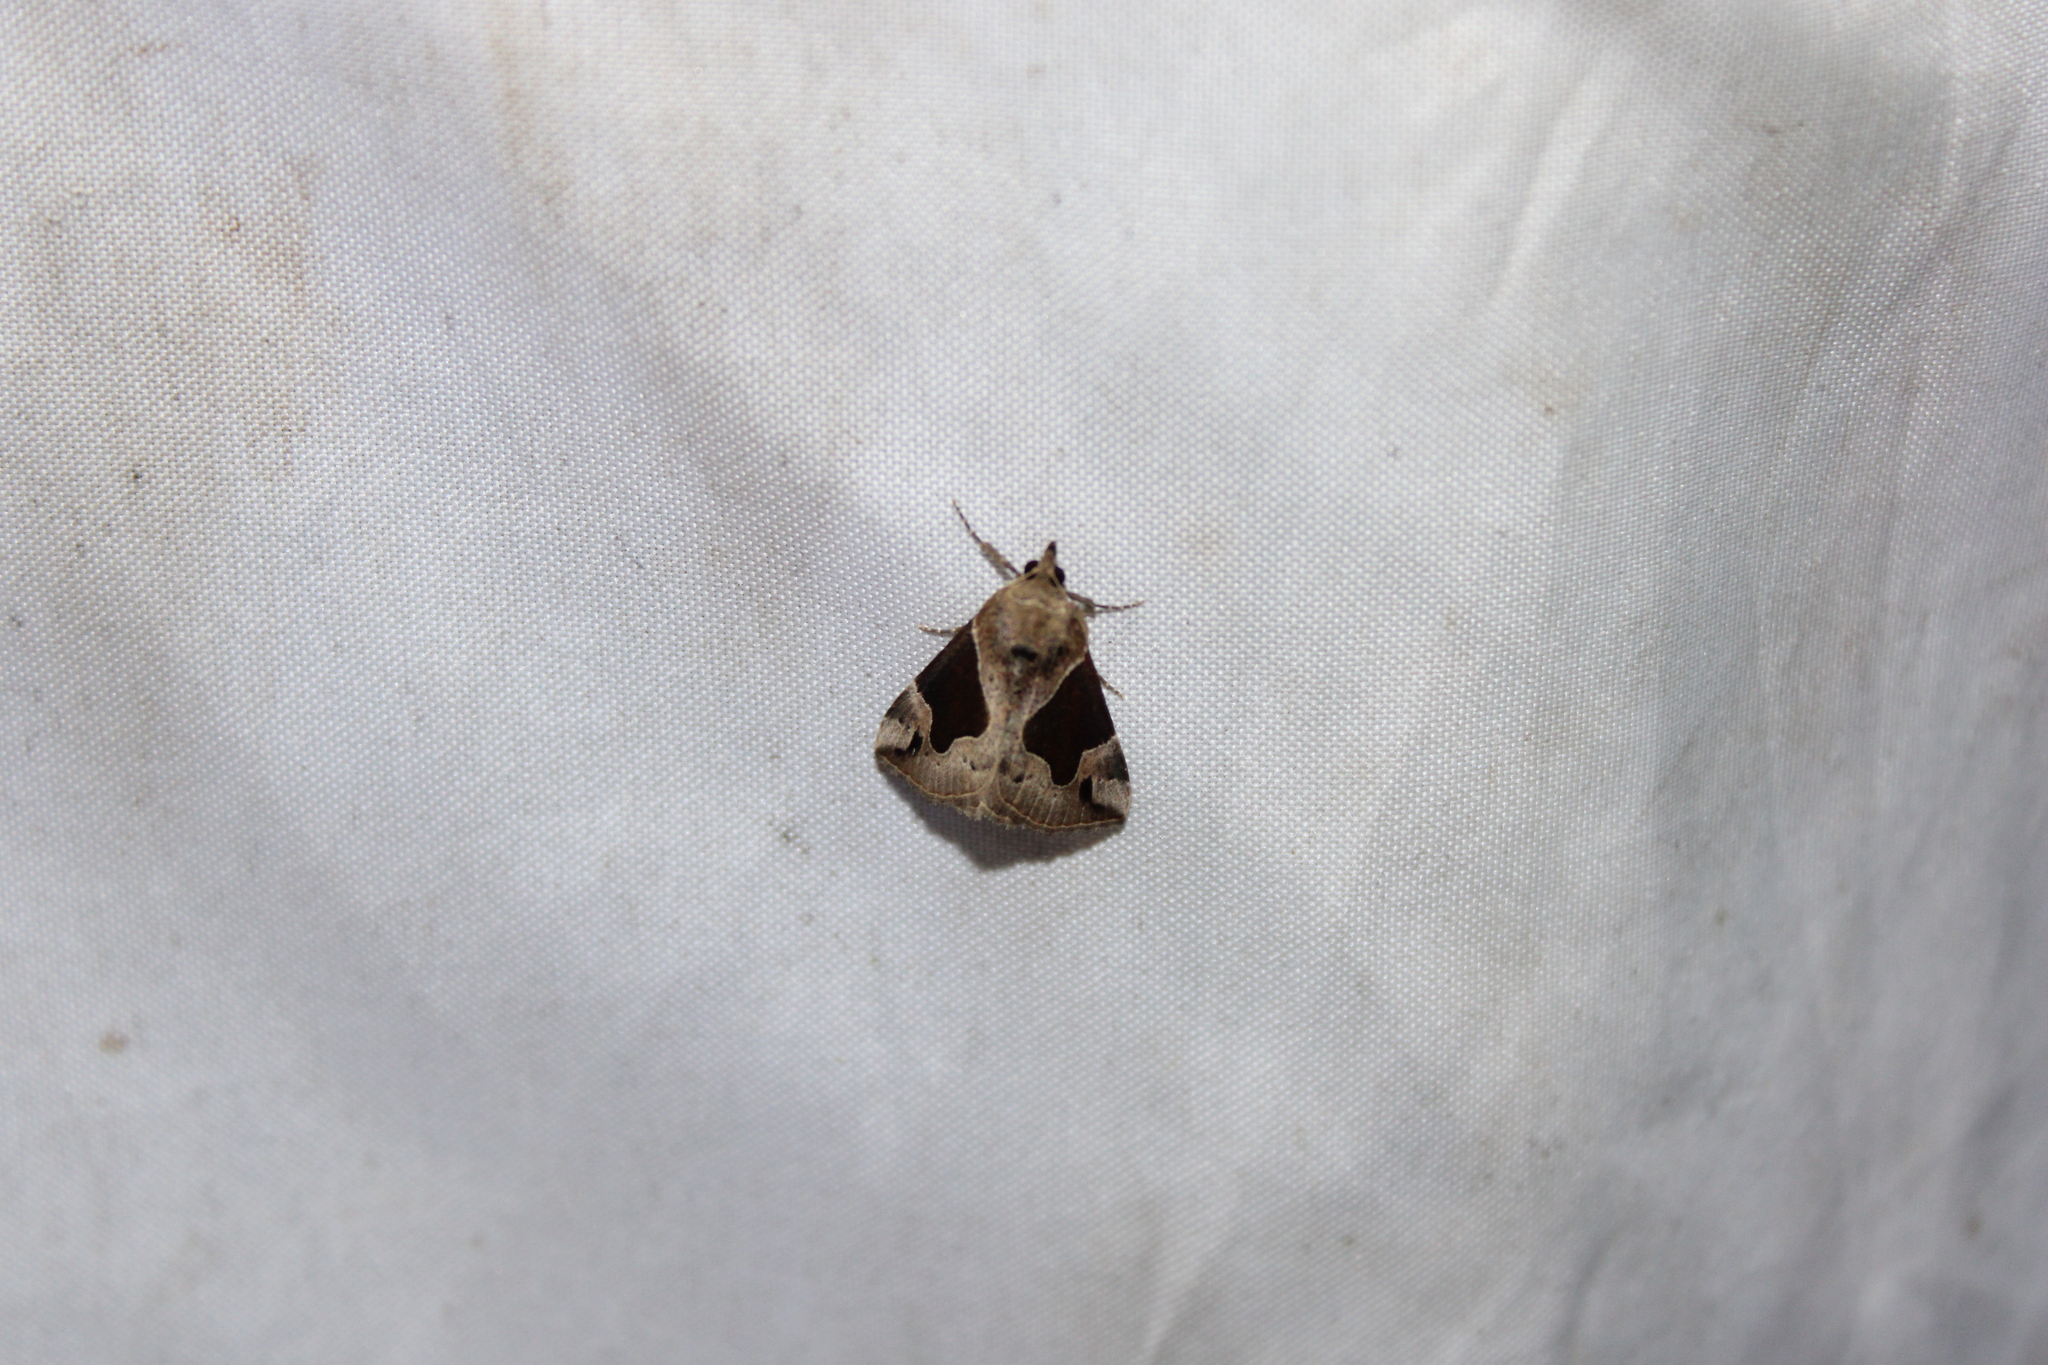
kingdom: Animalia
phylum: Arthropoda
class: Insecta
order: Lepidoptera
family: Erebidae
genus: Hypena
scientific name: Hypena manalis
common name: Flowing-line bomolocha moth
